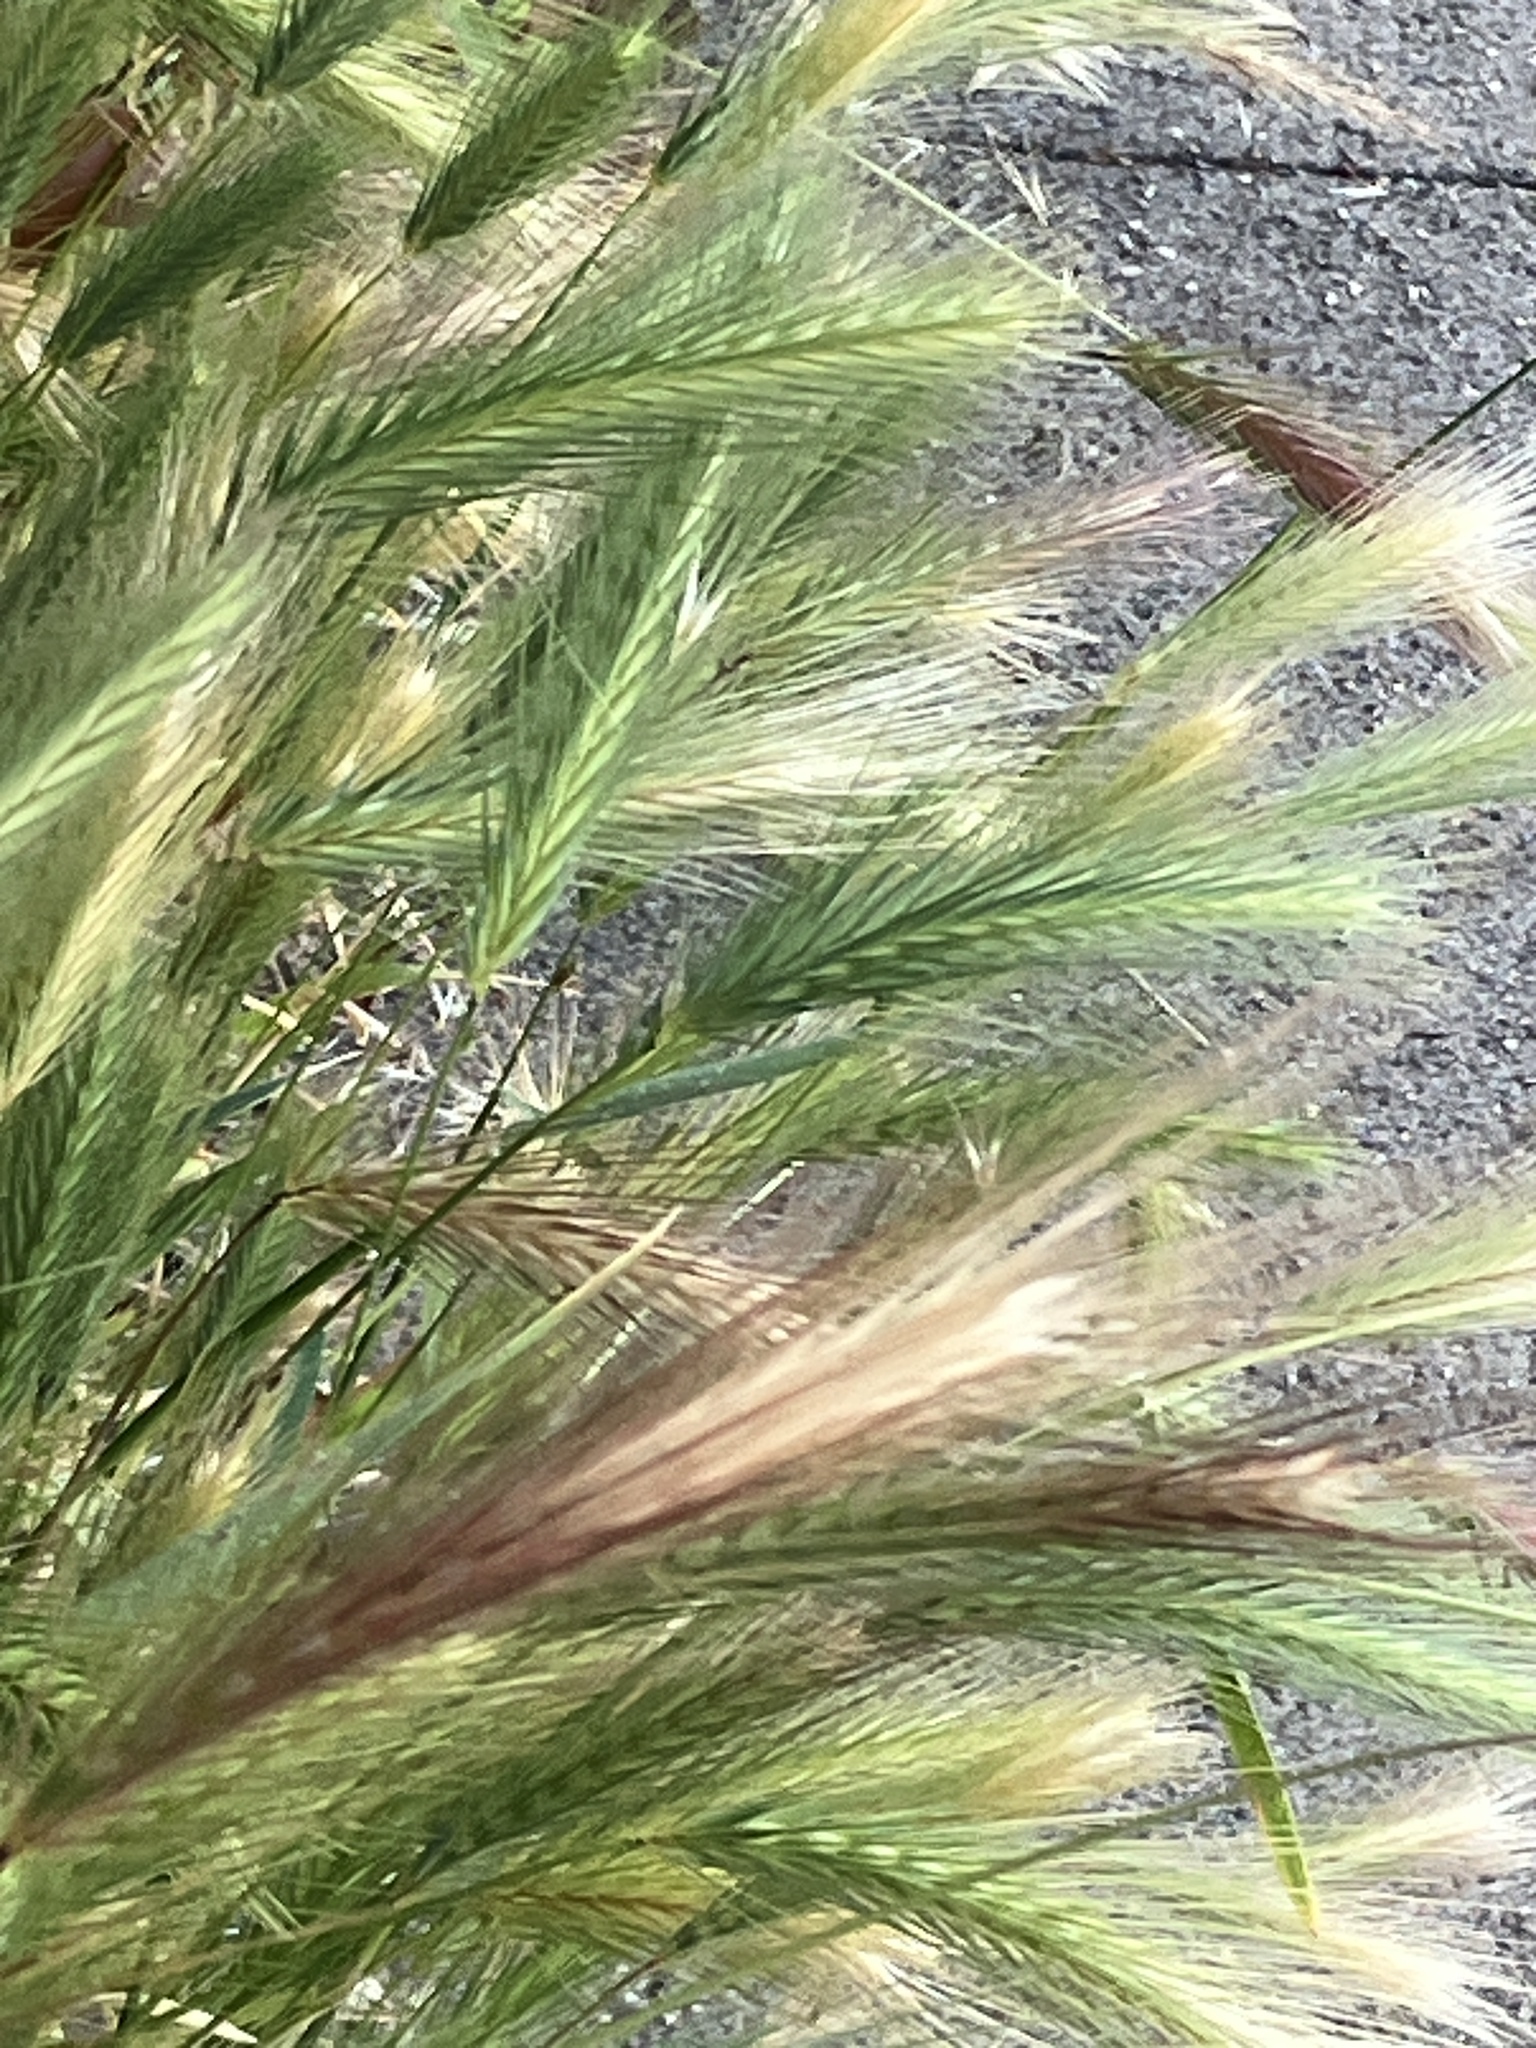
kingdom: Plantae
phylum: Tracheophyta
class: Liliopsida
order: Poales
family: Poaceae
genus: Hordeum
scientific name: Hordeum murinum
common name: Wall barley
